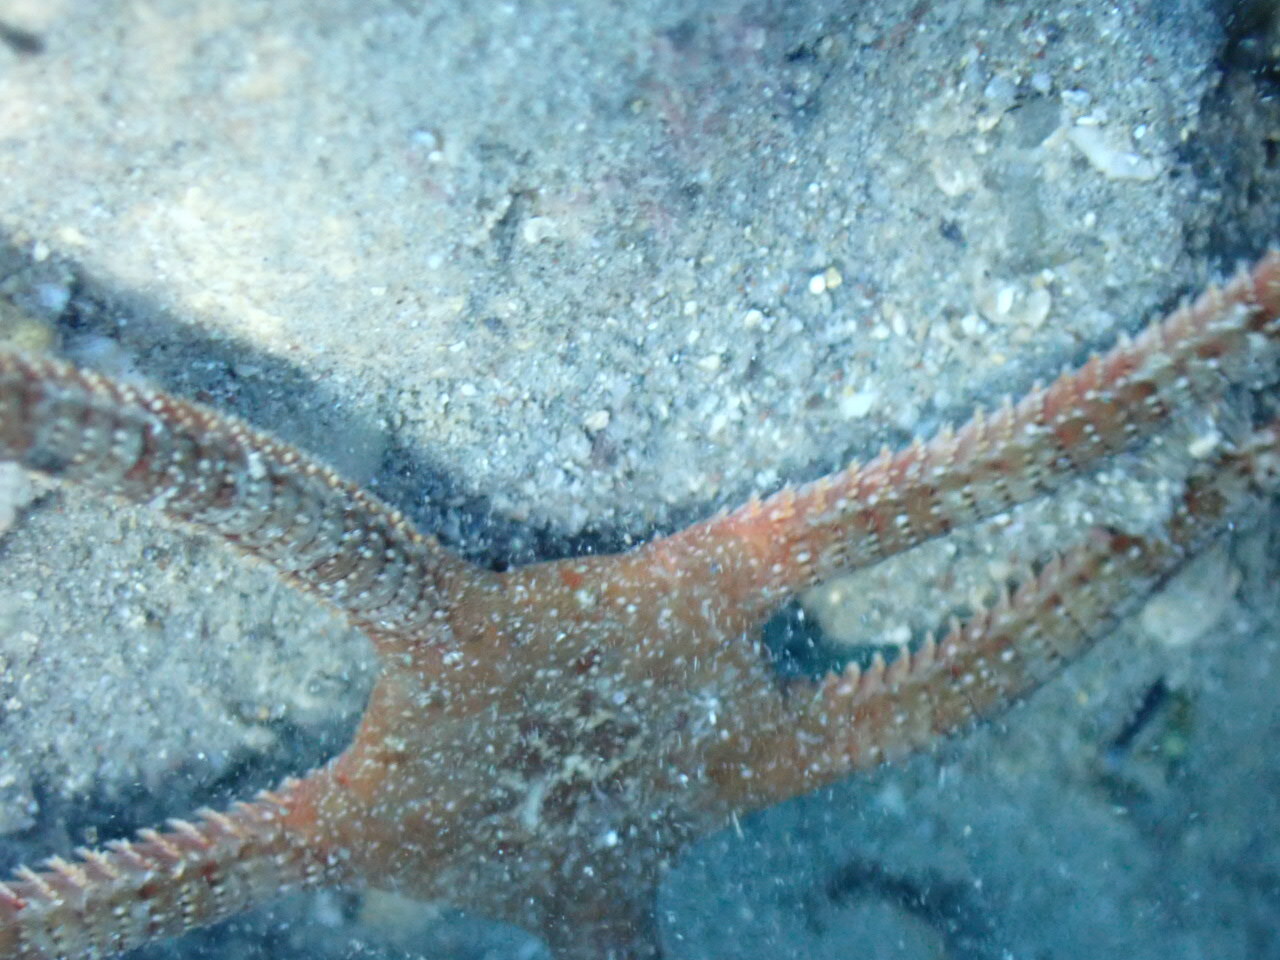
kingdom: Animalia
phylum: Echinodermata
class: Ophiuroidea
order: Ophiacanthida
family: Ophiodermatidae
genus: Ophioderma
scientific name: Ophioderma longicaudum
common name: Smooth brittle-star
